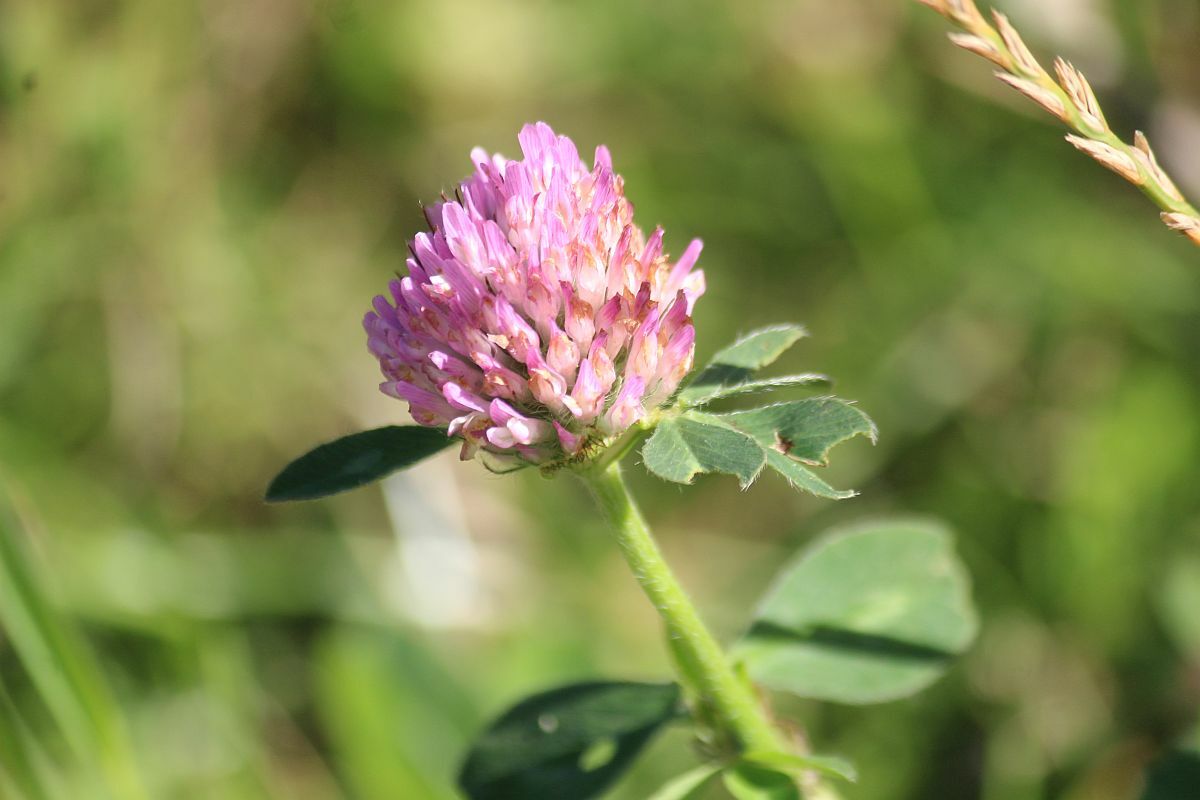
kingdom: Plantae
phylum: Tracheophyta
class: Magnoliopsida
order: Fabales
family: Fabaceae
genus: Trifolium
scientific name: Trifolium pratense
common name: Red clover
